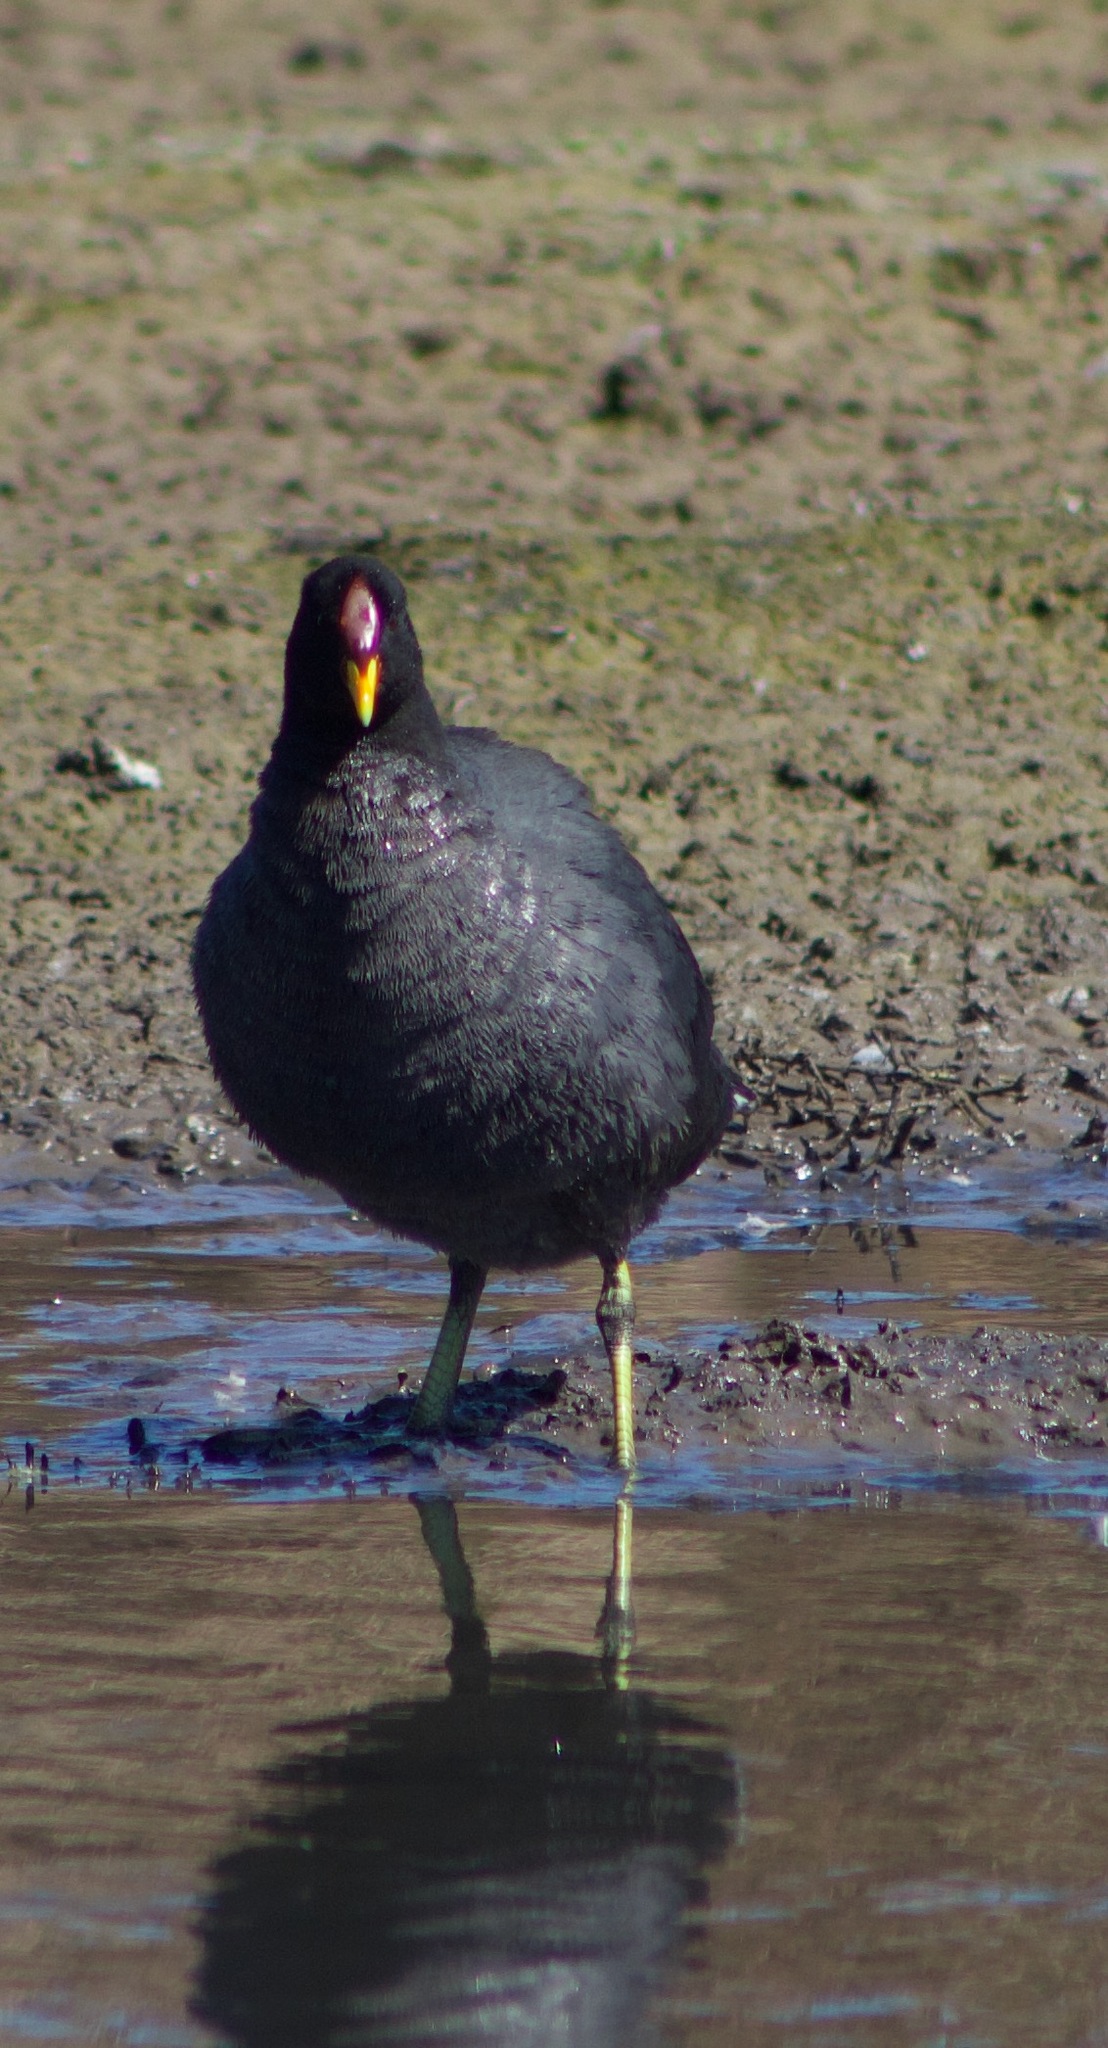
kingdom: Animalia
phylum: Chordata
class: Aves
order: Gruiformes
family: Rallidae
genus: Fulica
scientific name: Fulica rufifrons
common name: Red-fronted coot
